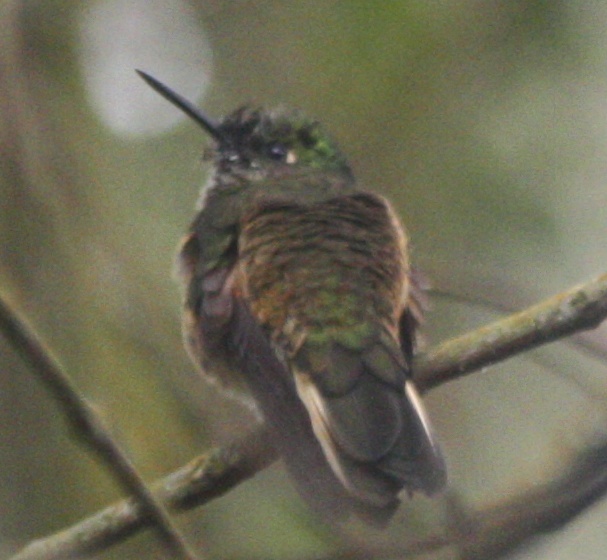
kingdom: Animalia
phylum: Chordata
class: Aves
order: Apodiformes
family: Trochilidae
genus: Boissonneaua
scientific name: Boissonneaua flavescens
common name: Buff-tailed coronet
